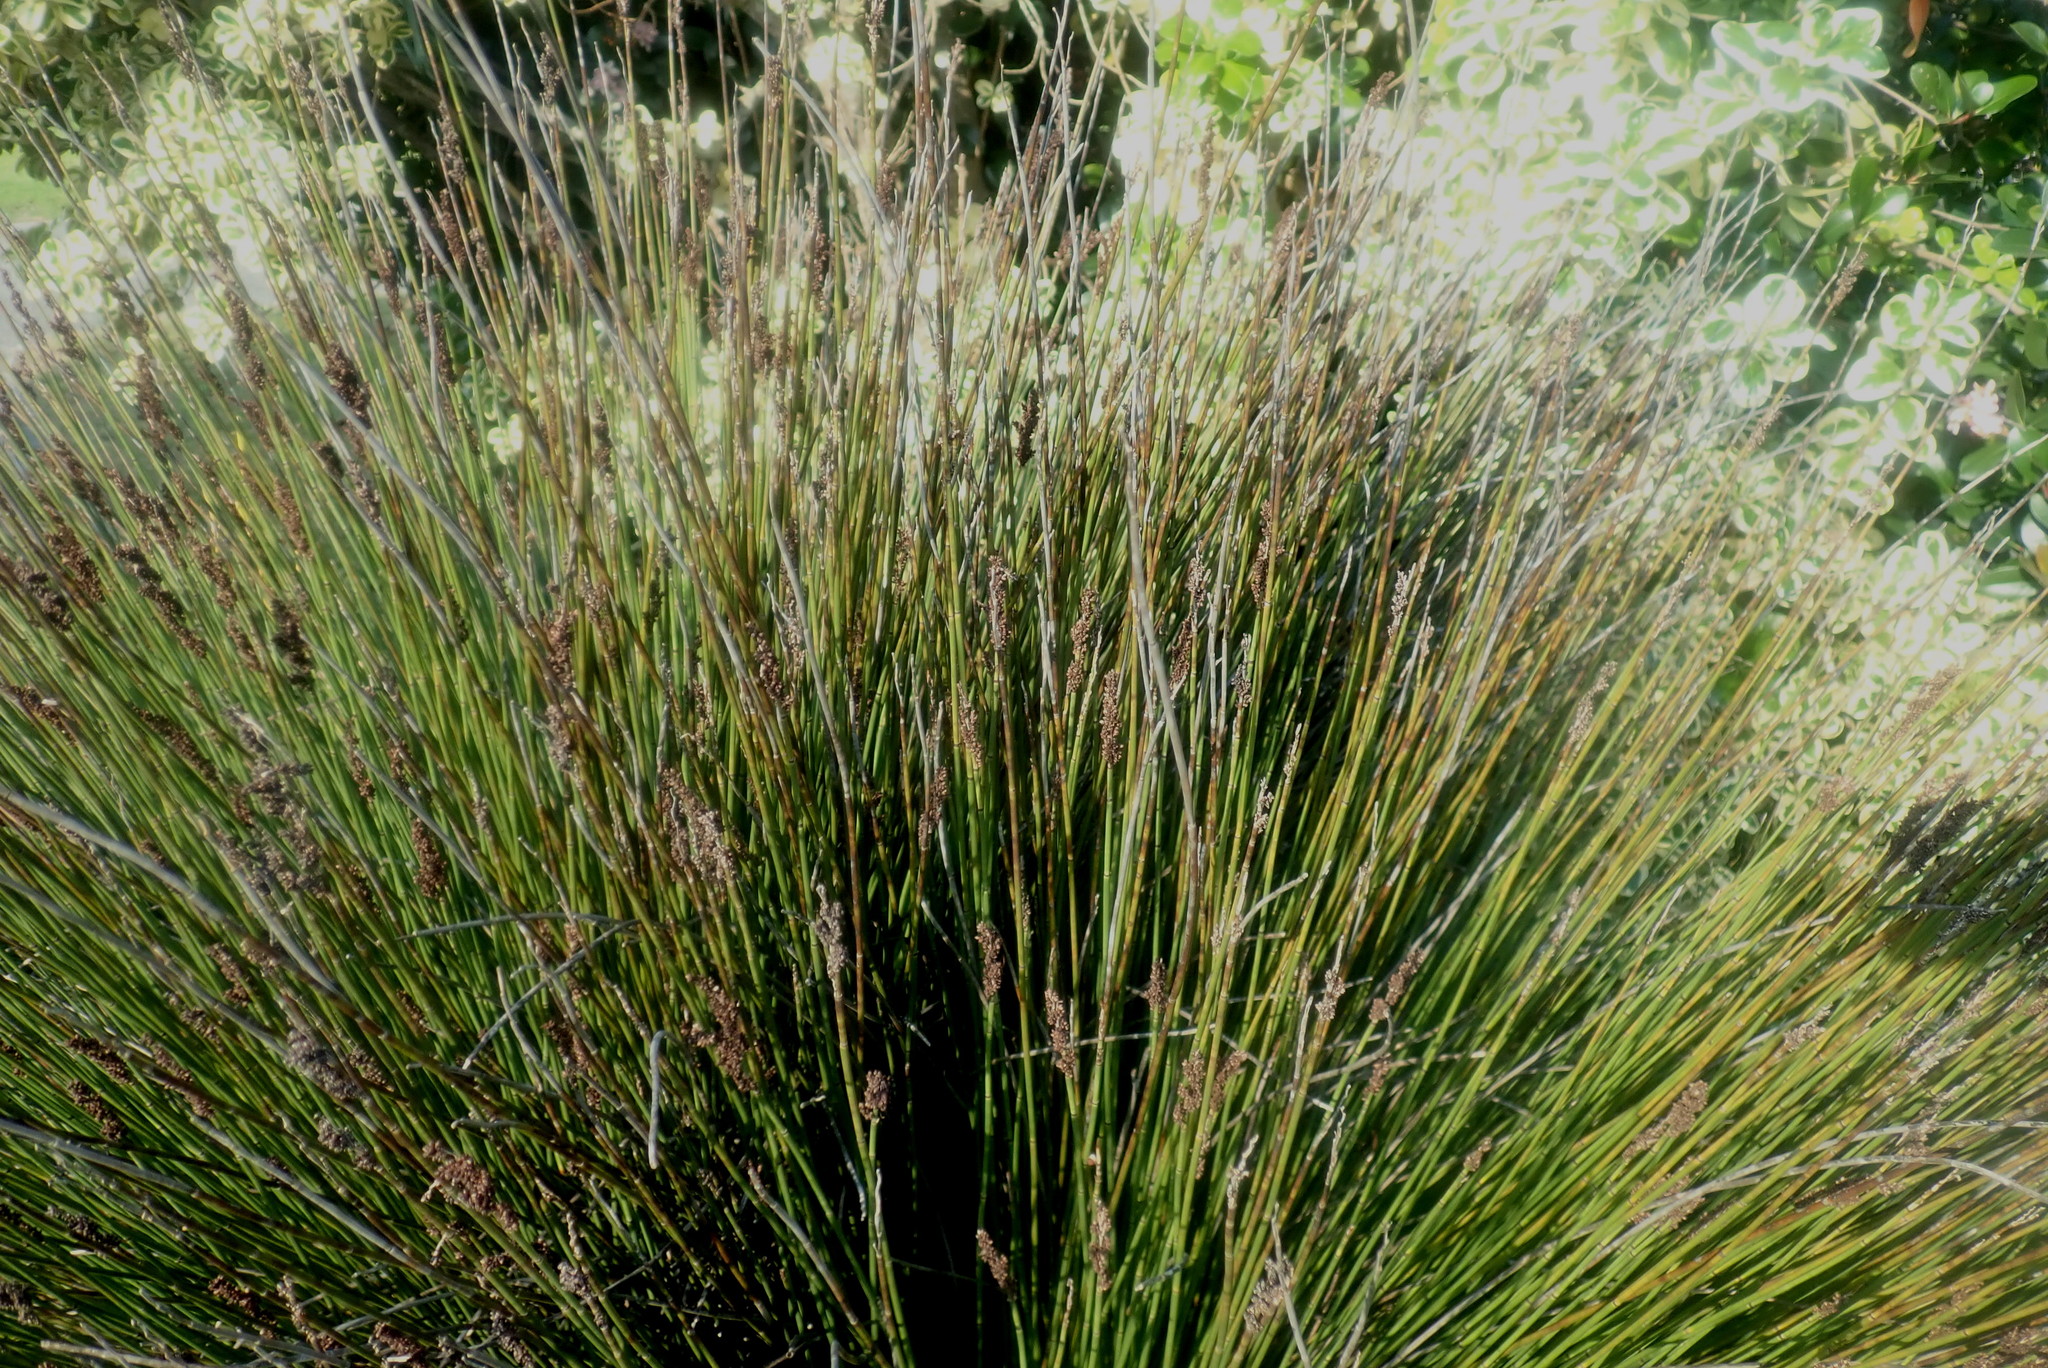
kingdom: Plantae
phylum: Tracheophyta
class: Liliopsida
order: Poales
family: Restionaceae
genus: Elegia
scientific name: Elegia tectorum
